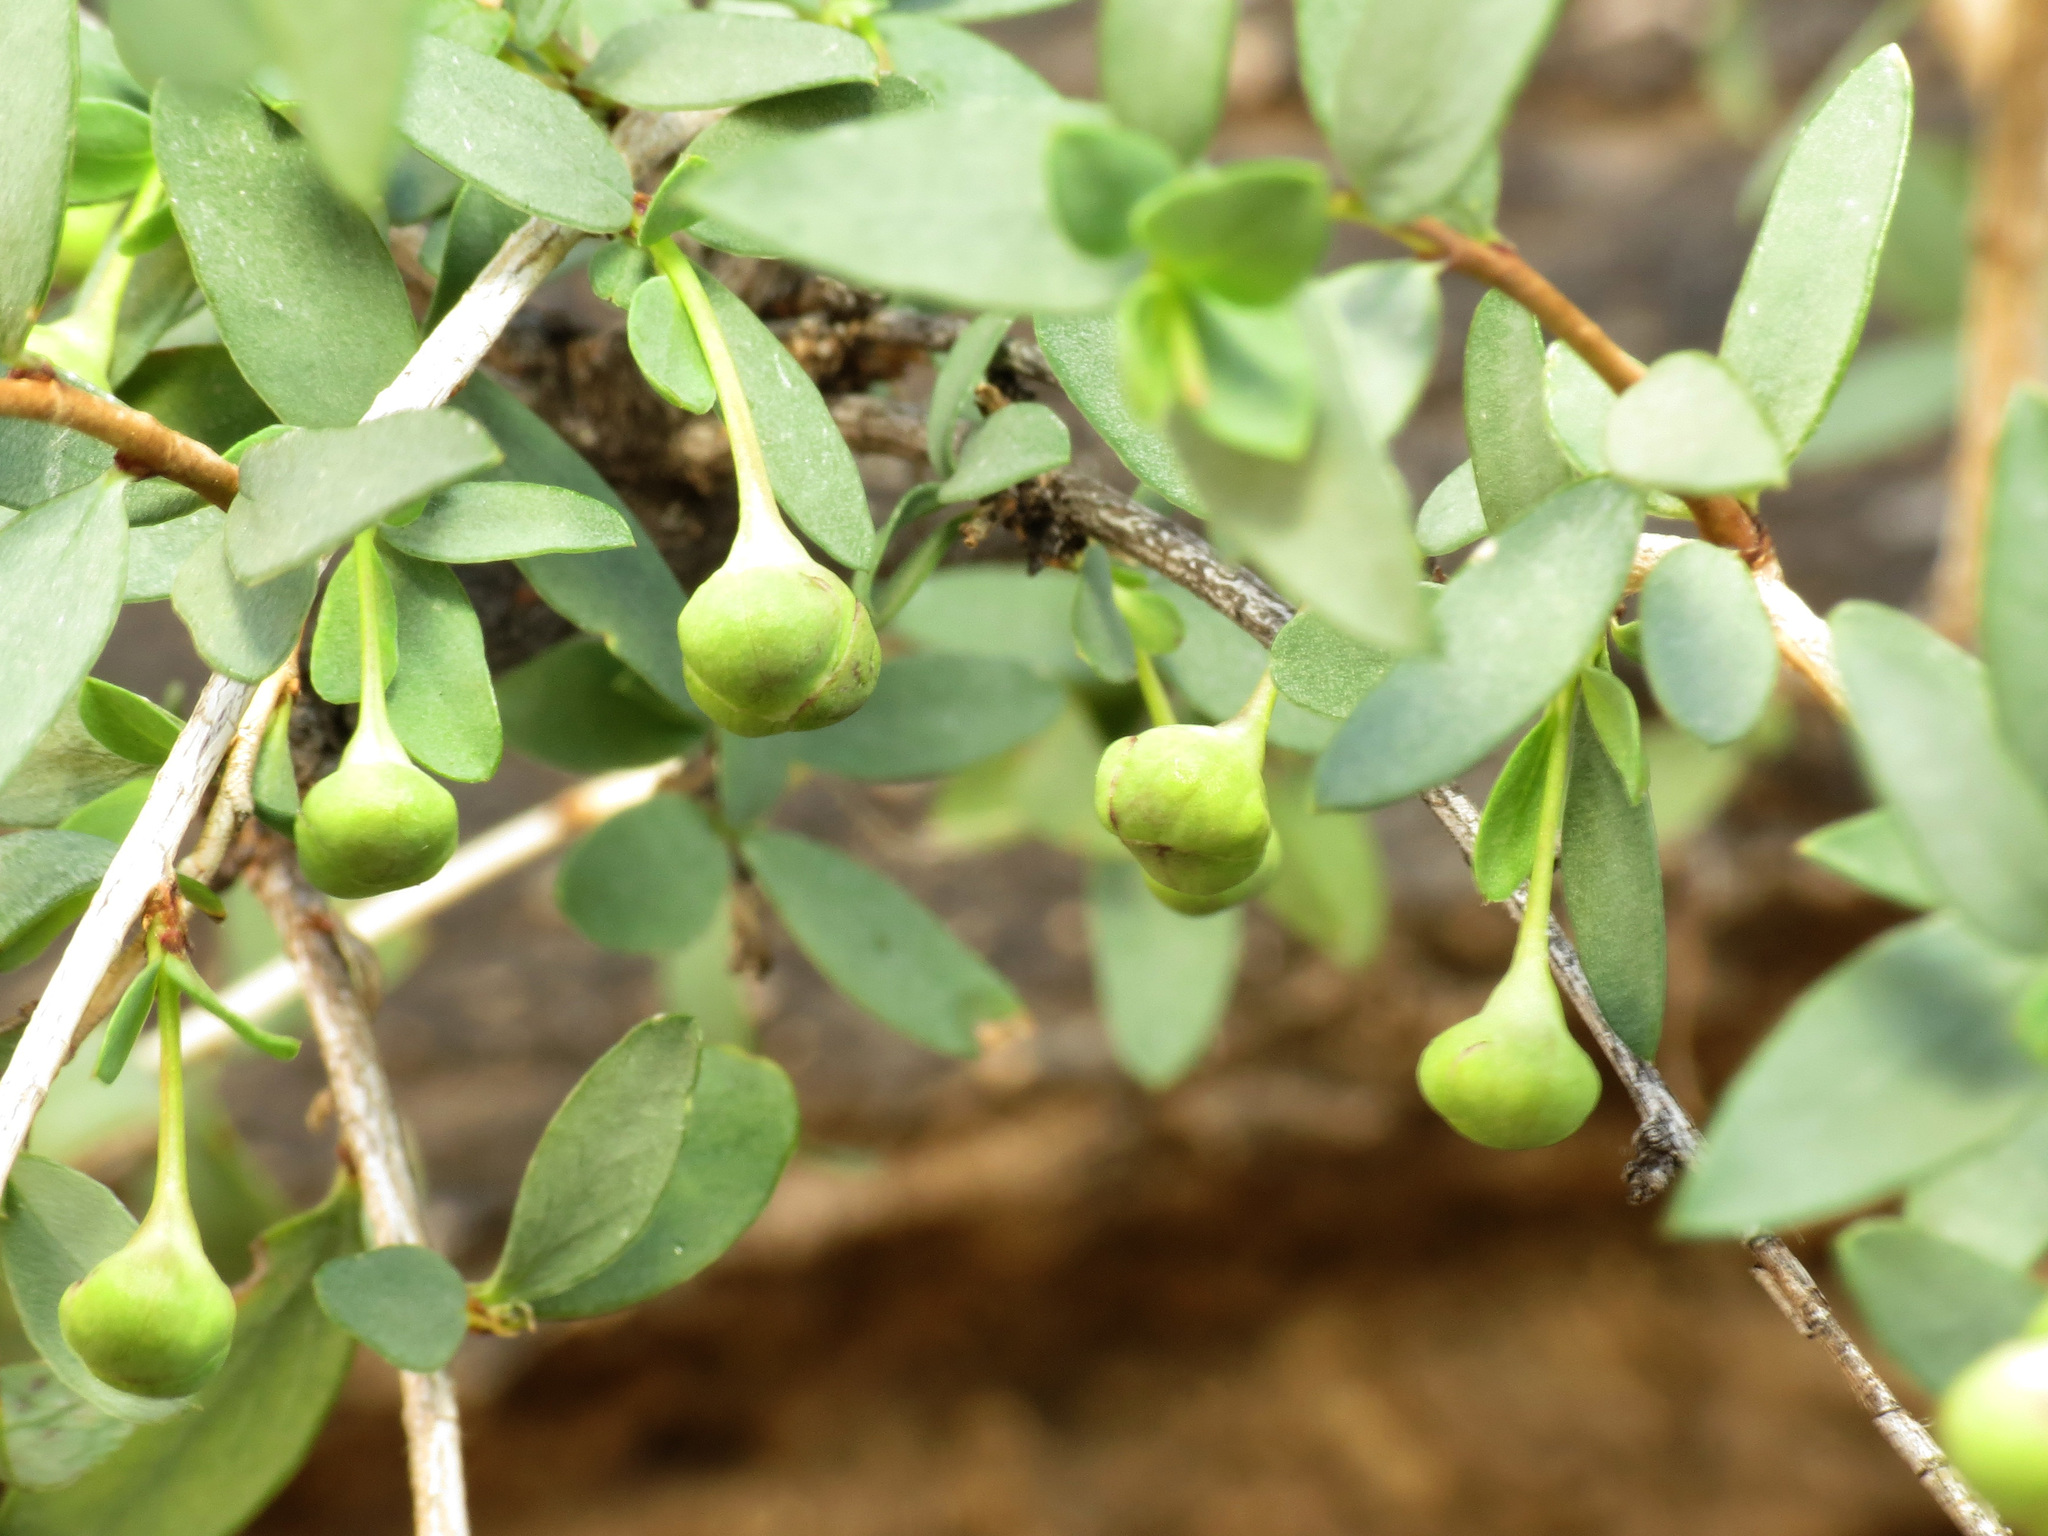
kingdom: Plantae
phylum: Tracheophyta
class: Magnoliopsida
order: Crossosomatales
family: Crossosomataceae
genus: Crossosoma
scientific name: Crossosoma bigelovii
